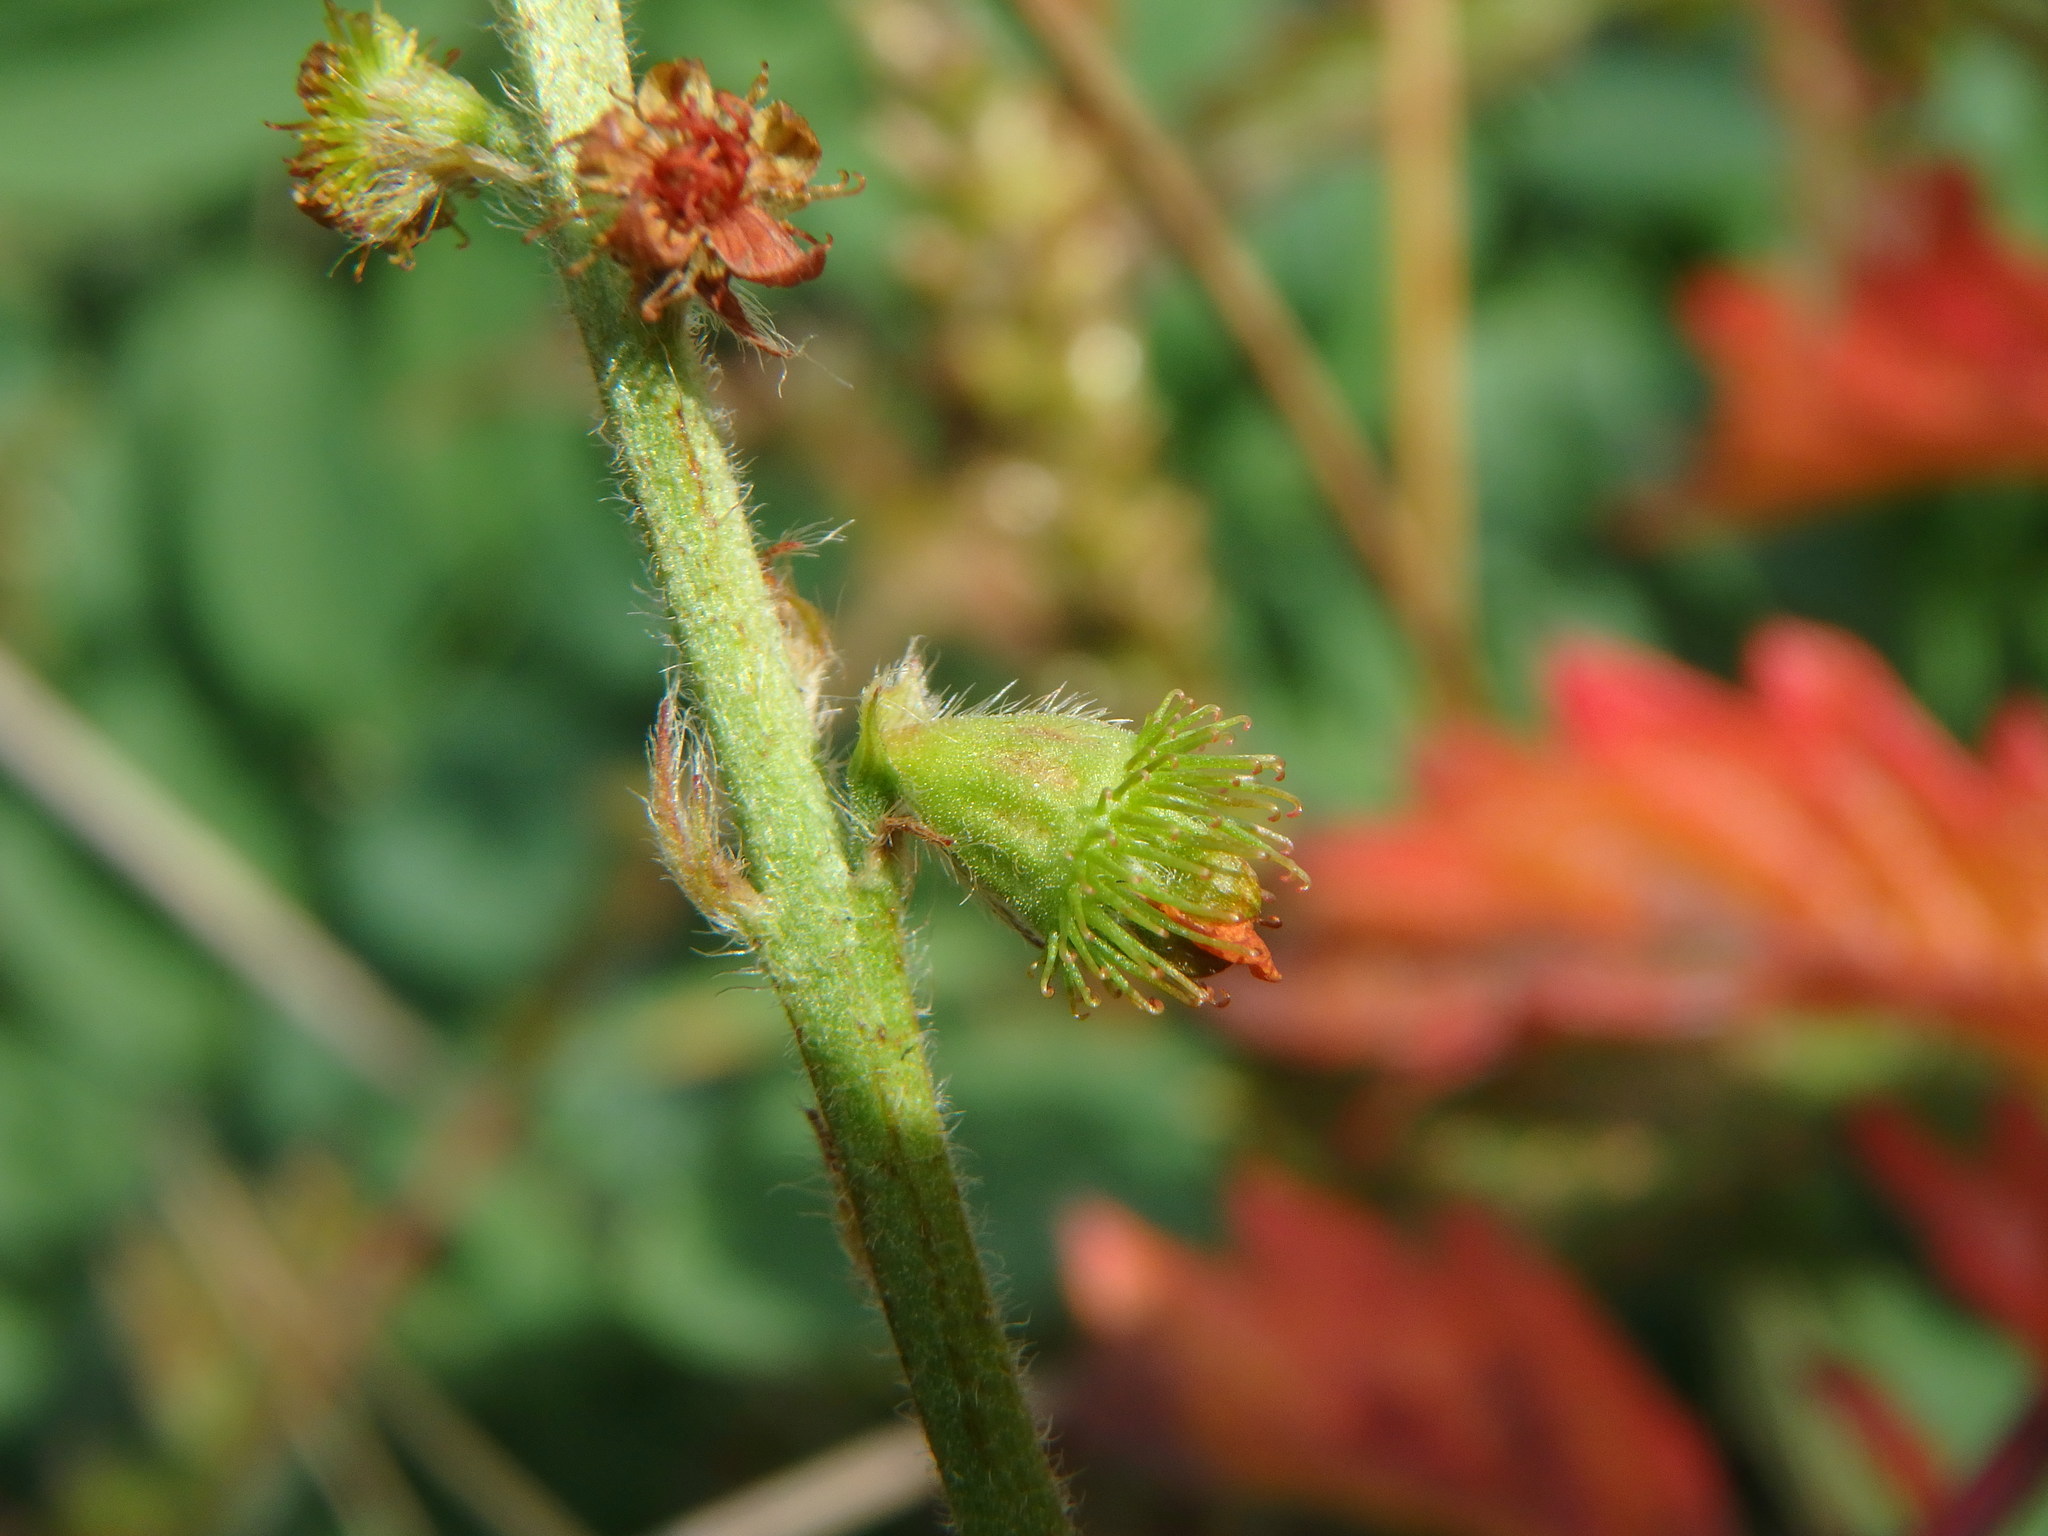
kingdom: Plantae
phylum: Tracheophyta
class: Magnoliopsida
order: Rosales
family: Rosaceae
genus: Agrimonia
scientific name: Agrimonia eupatoria
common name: Agrimony
